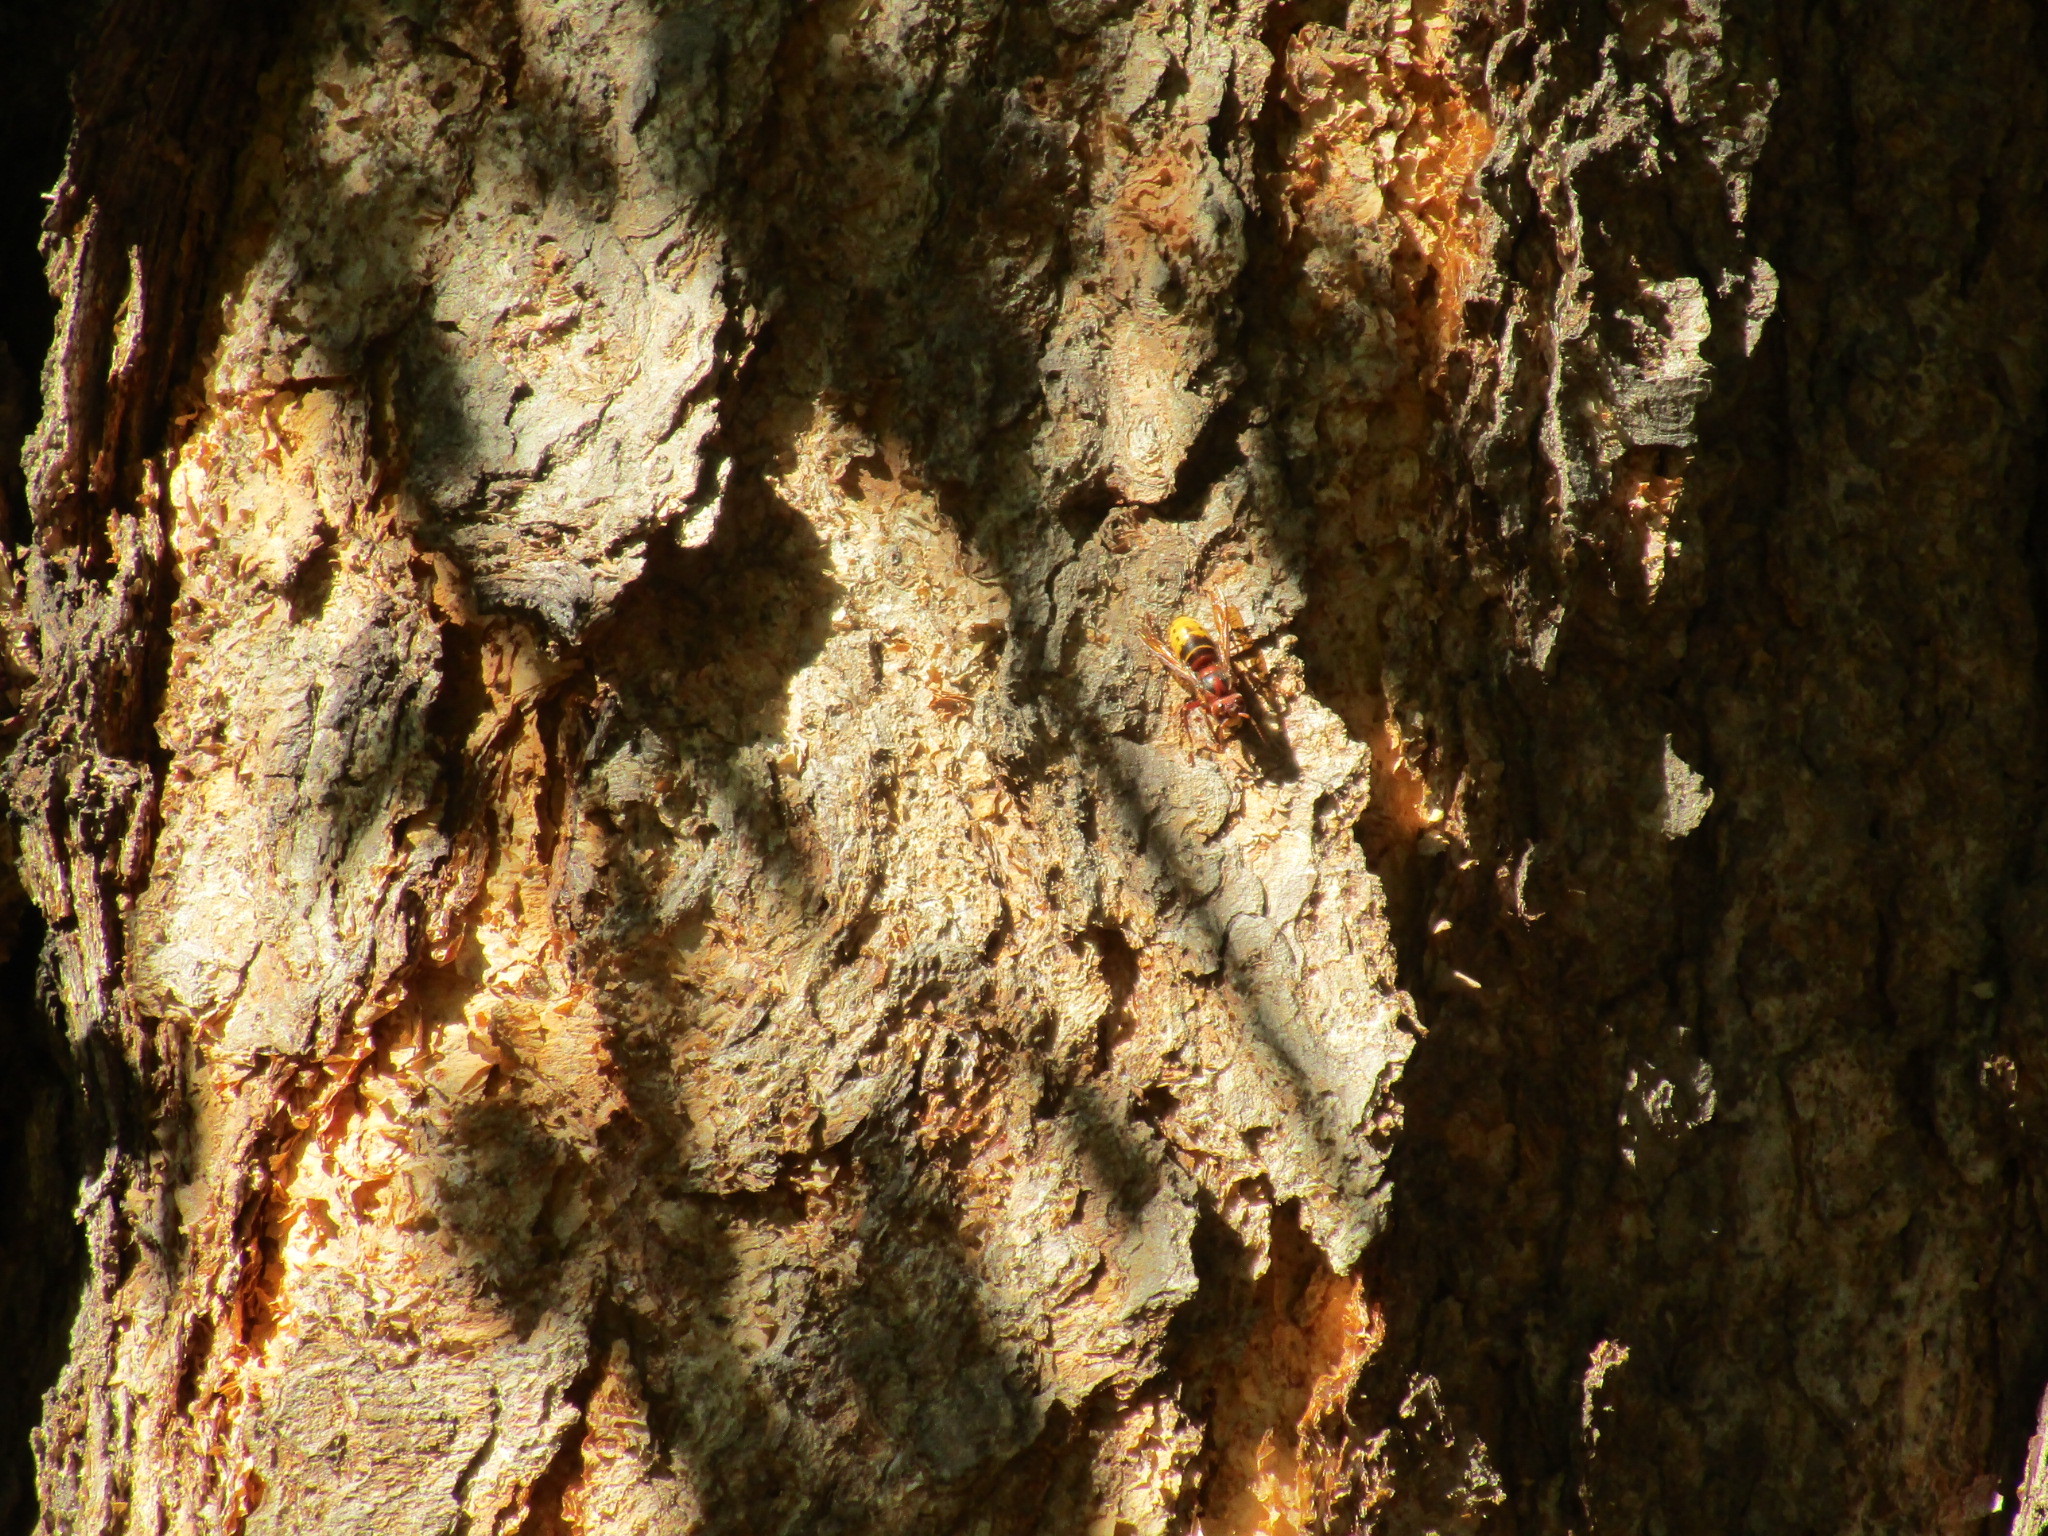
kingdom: Animalia
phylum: Arthropoda
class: Insecta
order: Hymenoptera
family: Vespidae
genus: Vespa
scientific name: Vespa crabro
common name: Hornet
